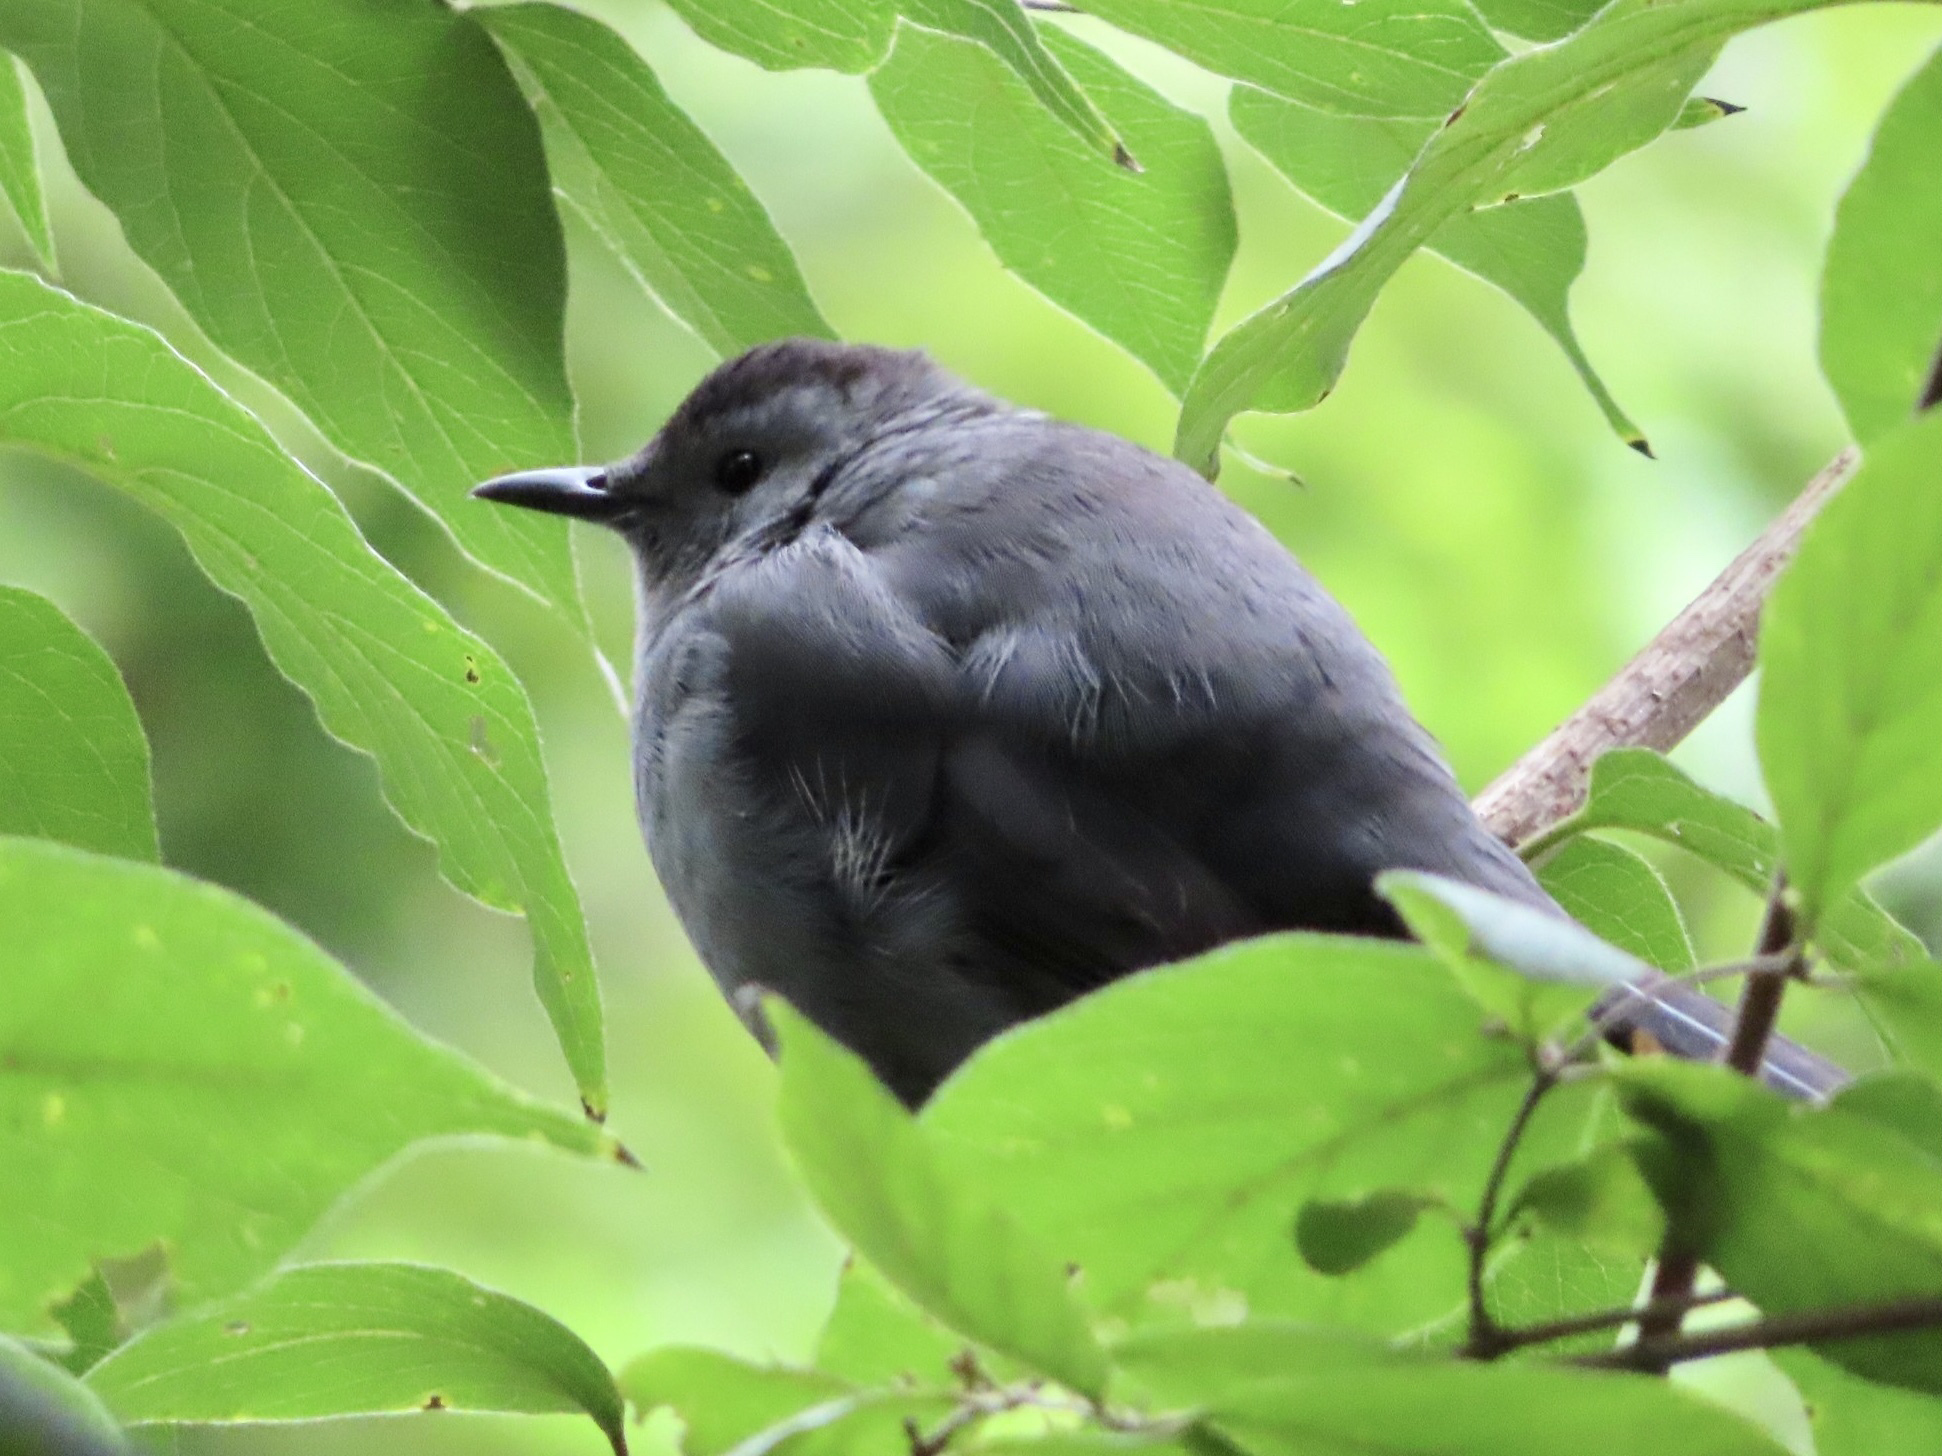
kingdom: Animalia
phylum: Chordata
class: Aves
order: Passeriformes
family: Mimidae
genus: Dumetella
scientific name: Dumetella carolinensis
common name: Gray catbird
